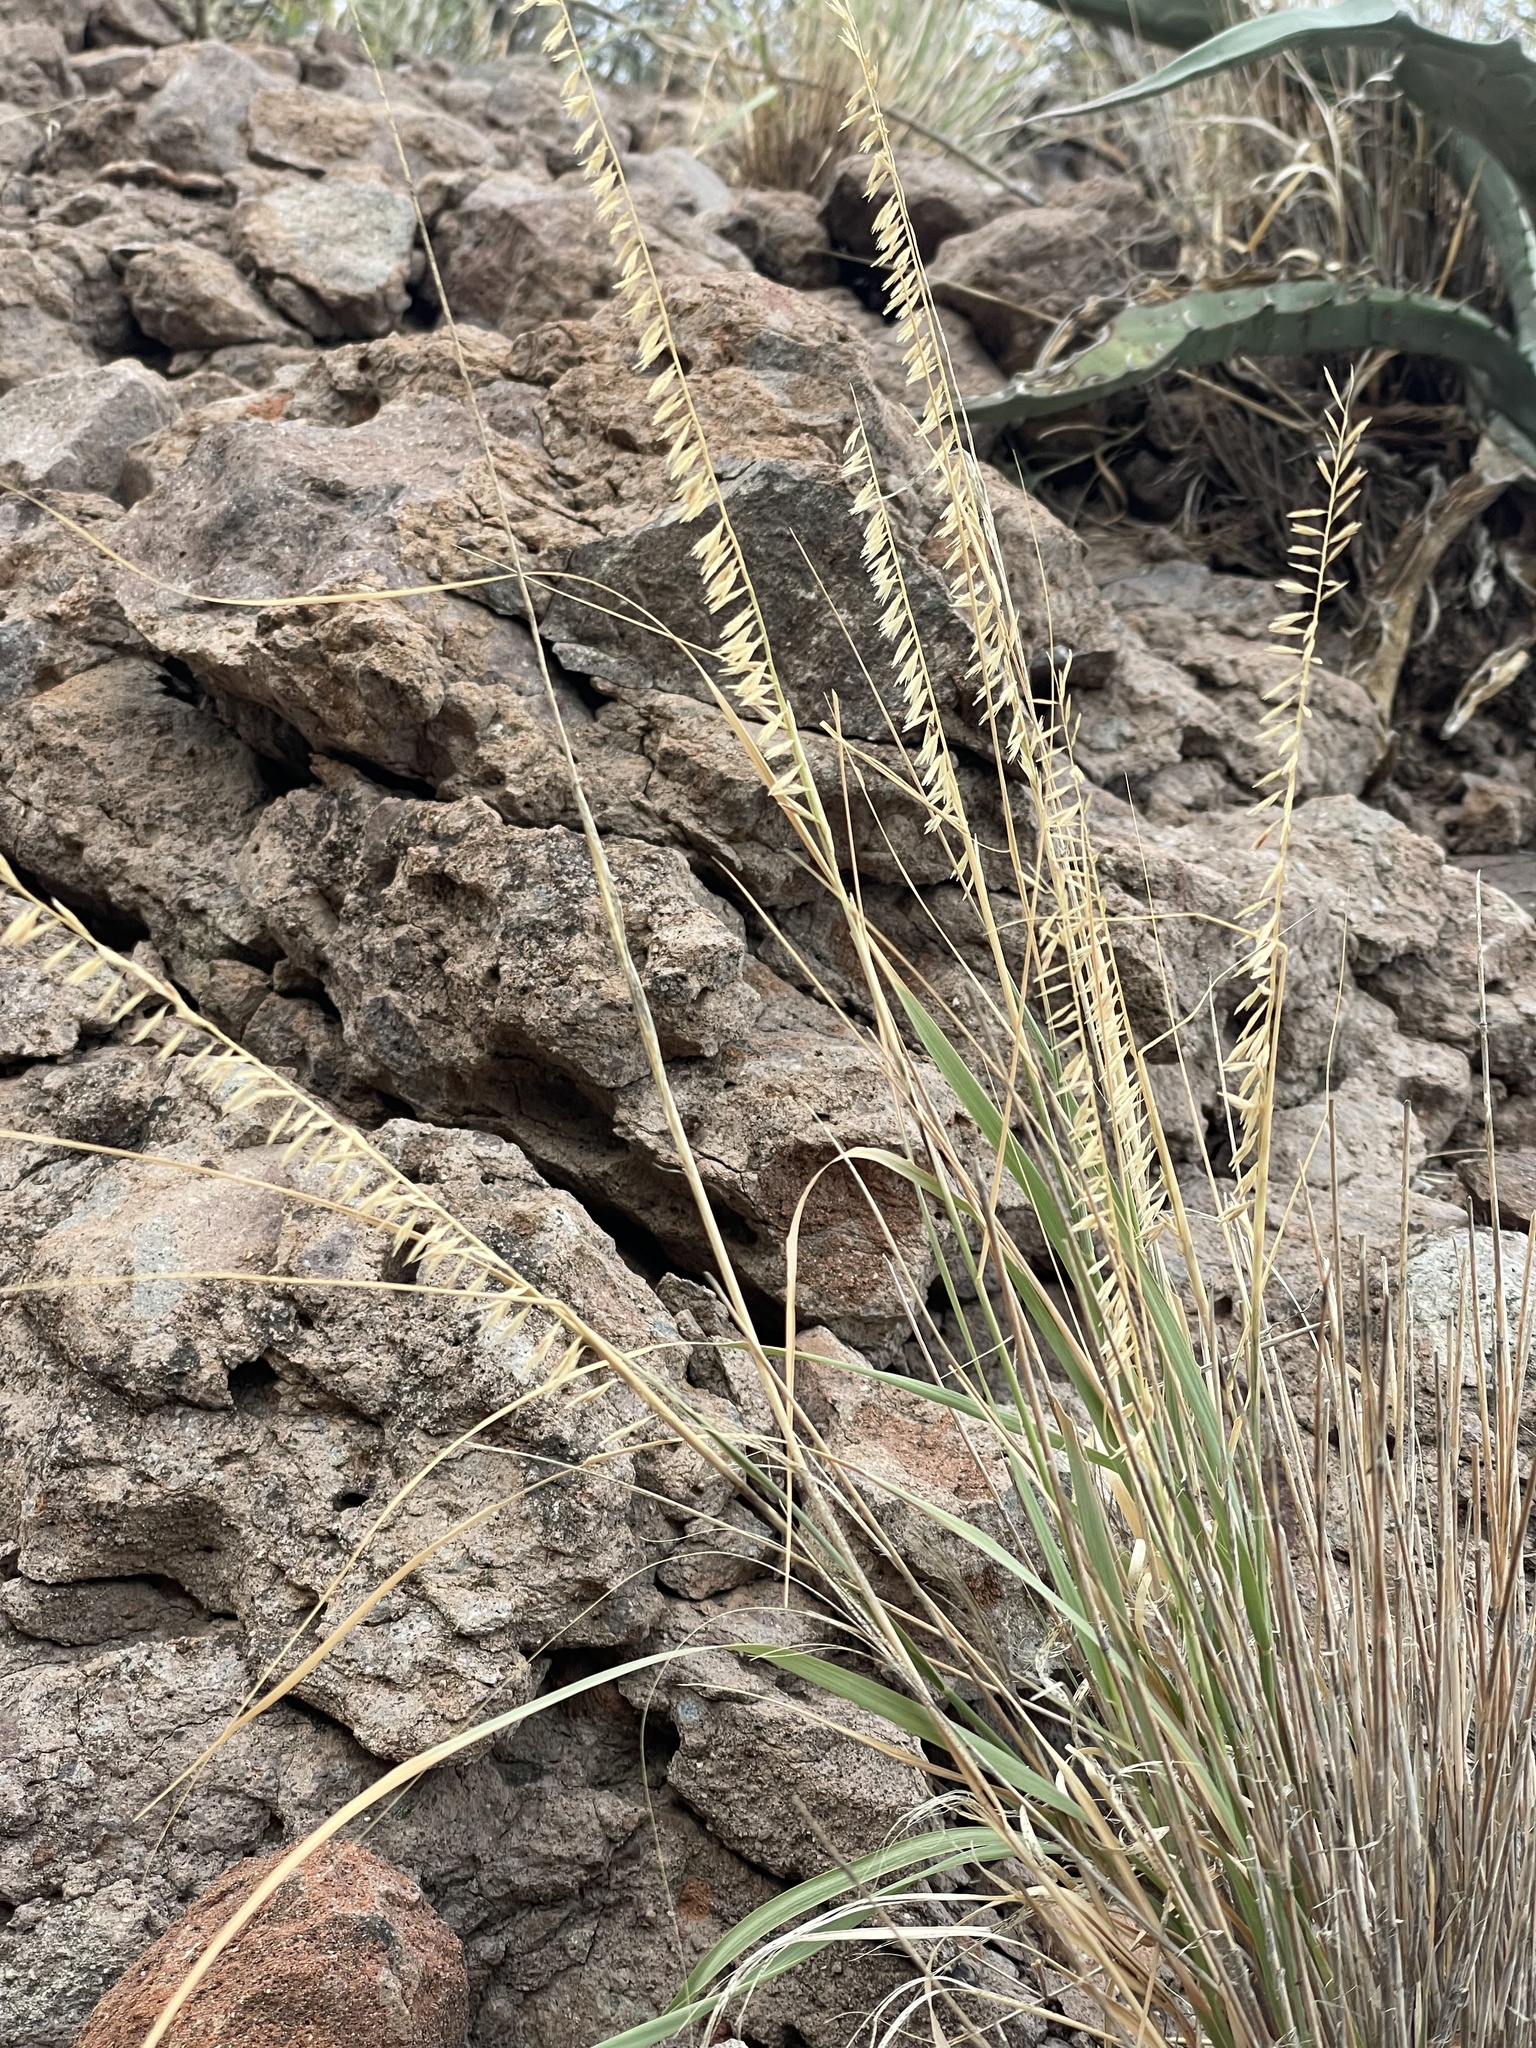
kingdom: Plantae
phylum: Tracheophyta
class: Liliopsida
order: Poales
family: Poaceae
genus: Bouteloua
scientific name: Bouteloua reflexa
